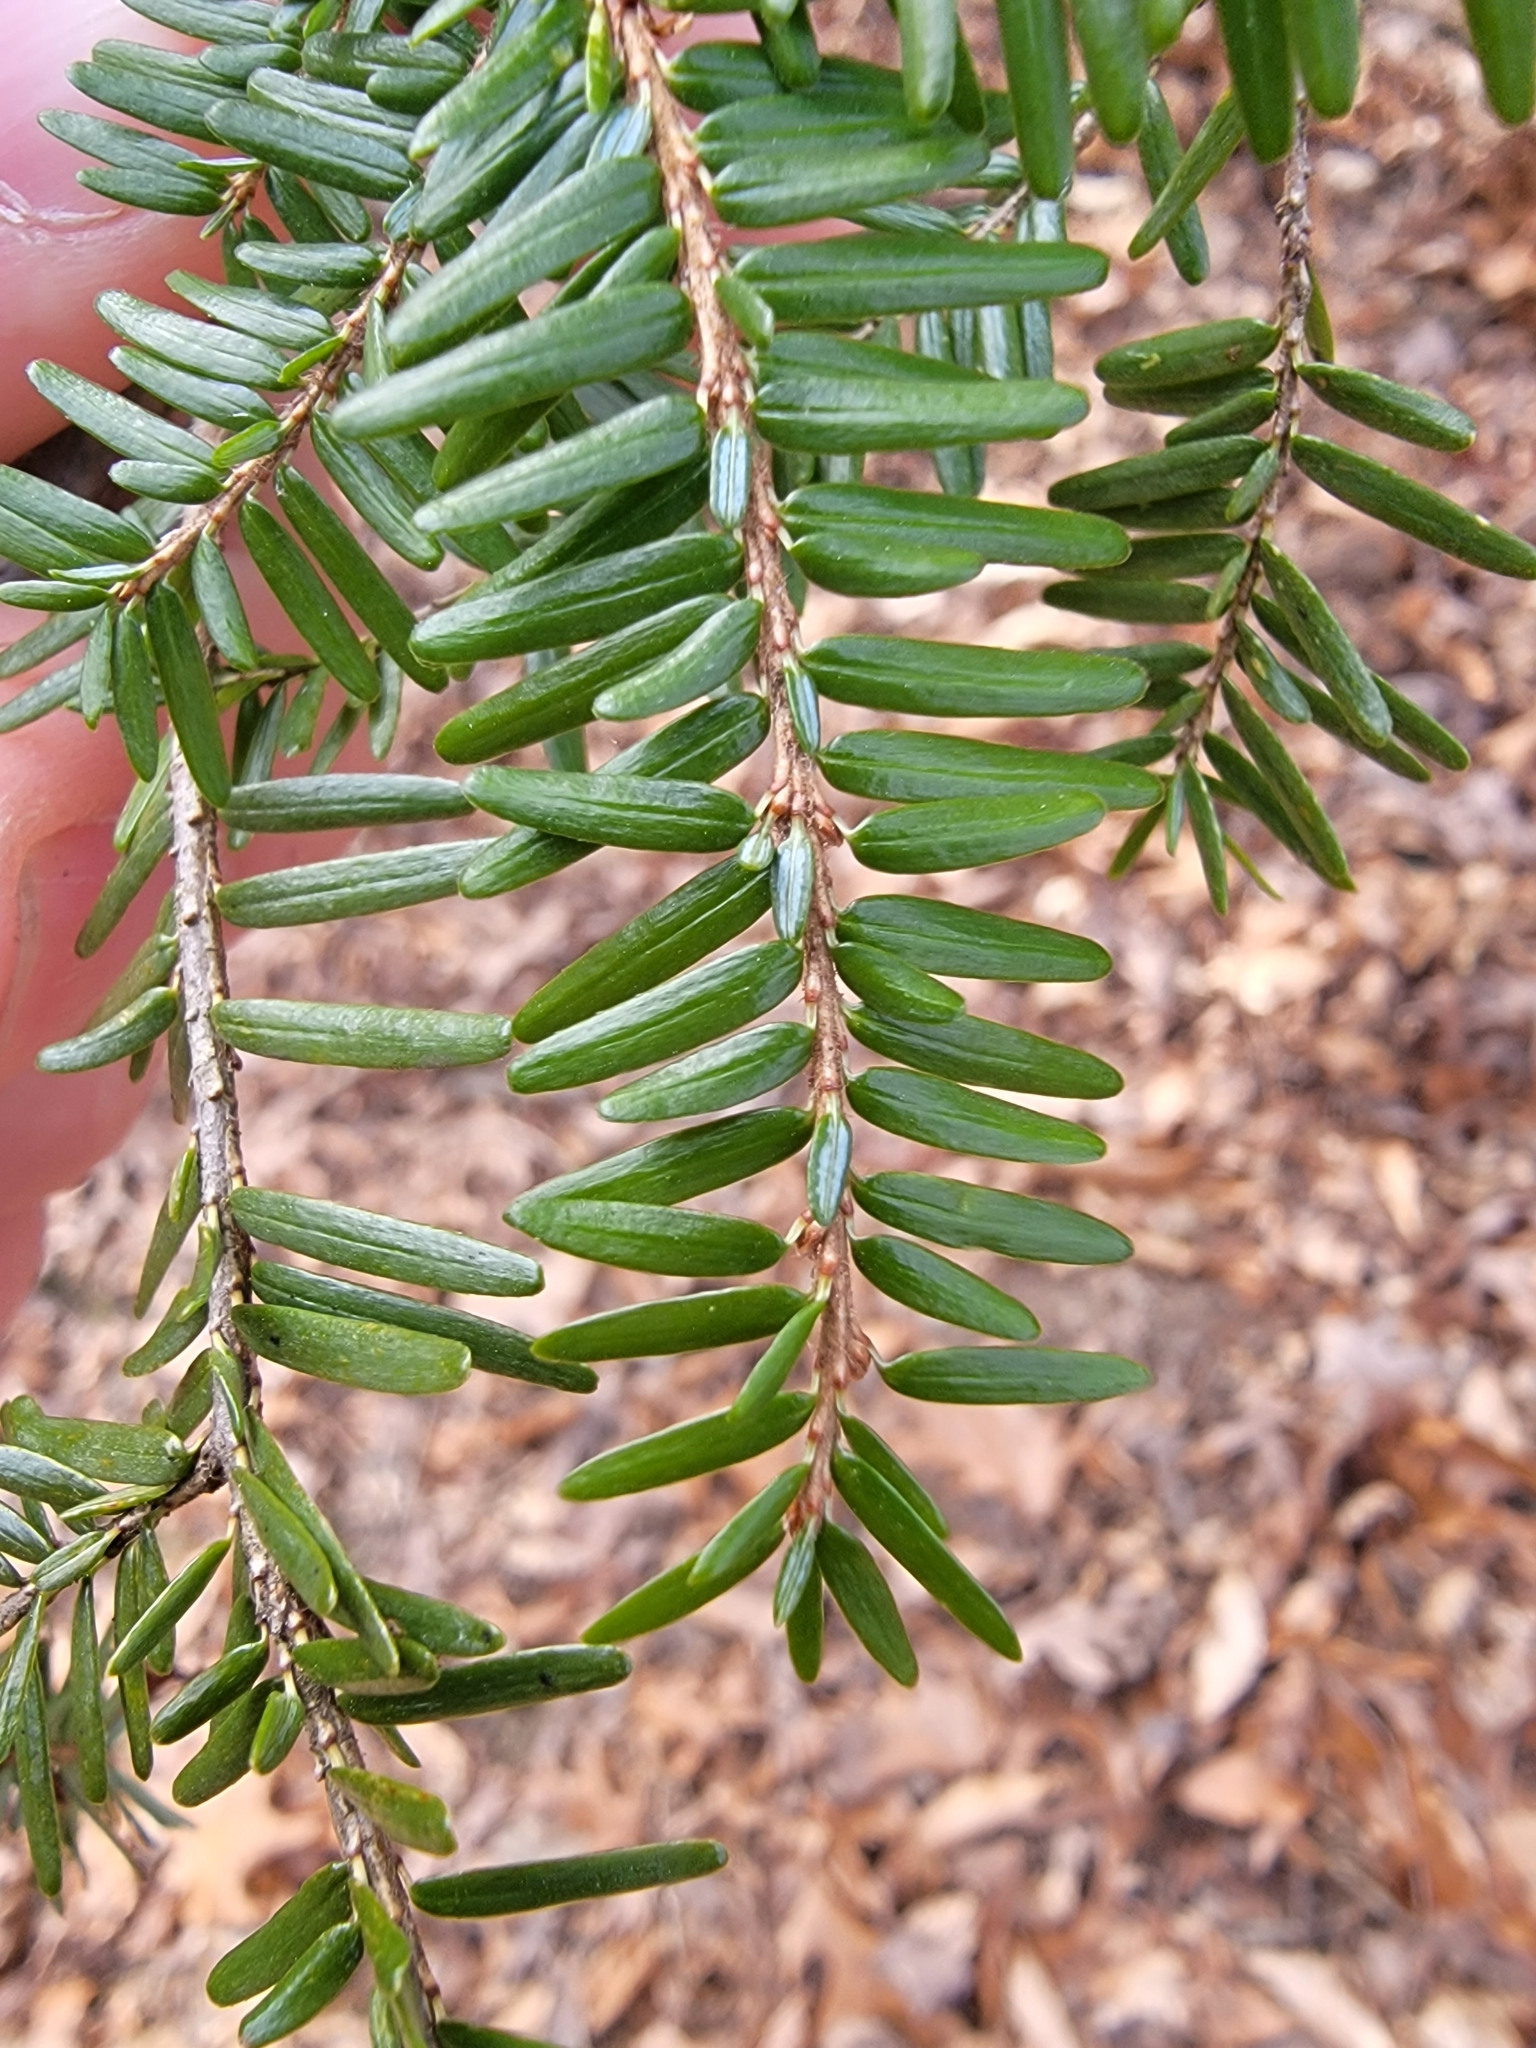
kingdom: Plantae
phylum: Tracheophyta
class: Pinopsida
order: Pinales
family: Pinaceae
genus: Tsuga
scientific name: Tsuga canadensis
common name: Eastern hemlock
